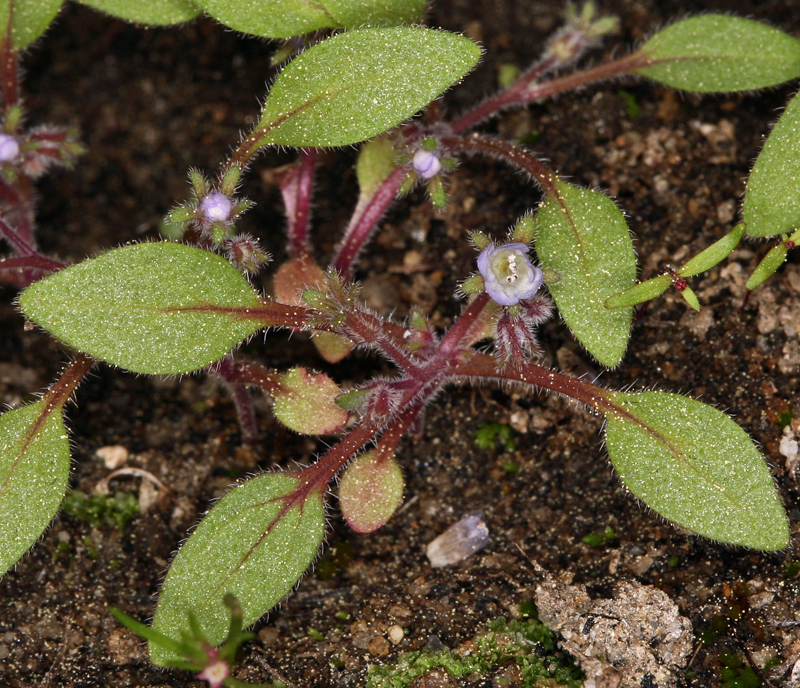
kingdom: Plantae
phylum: Tracheophyta
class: Magnoliopsida
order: Boraginales
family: Hydrophyllaceae
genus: Phacelia
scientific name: Phacelia eisenii
